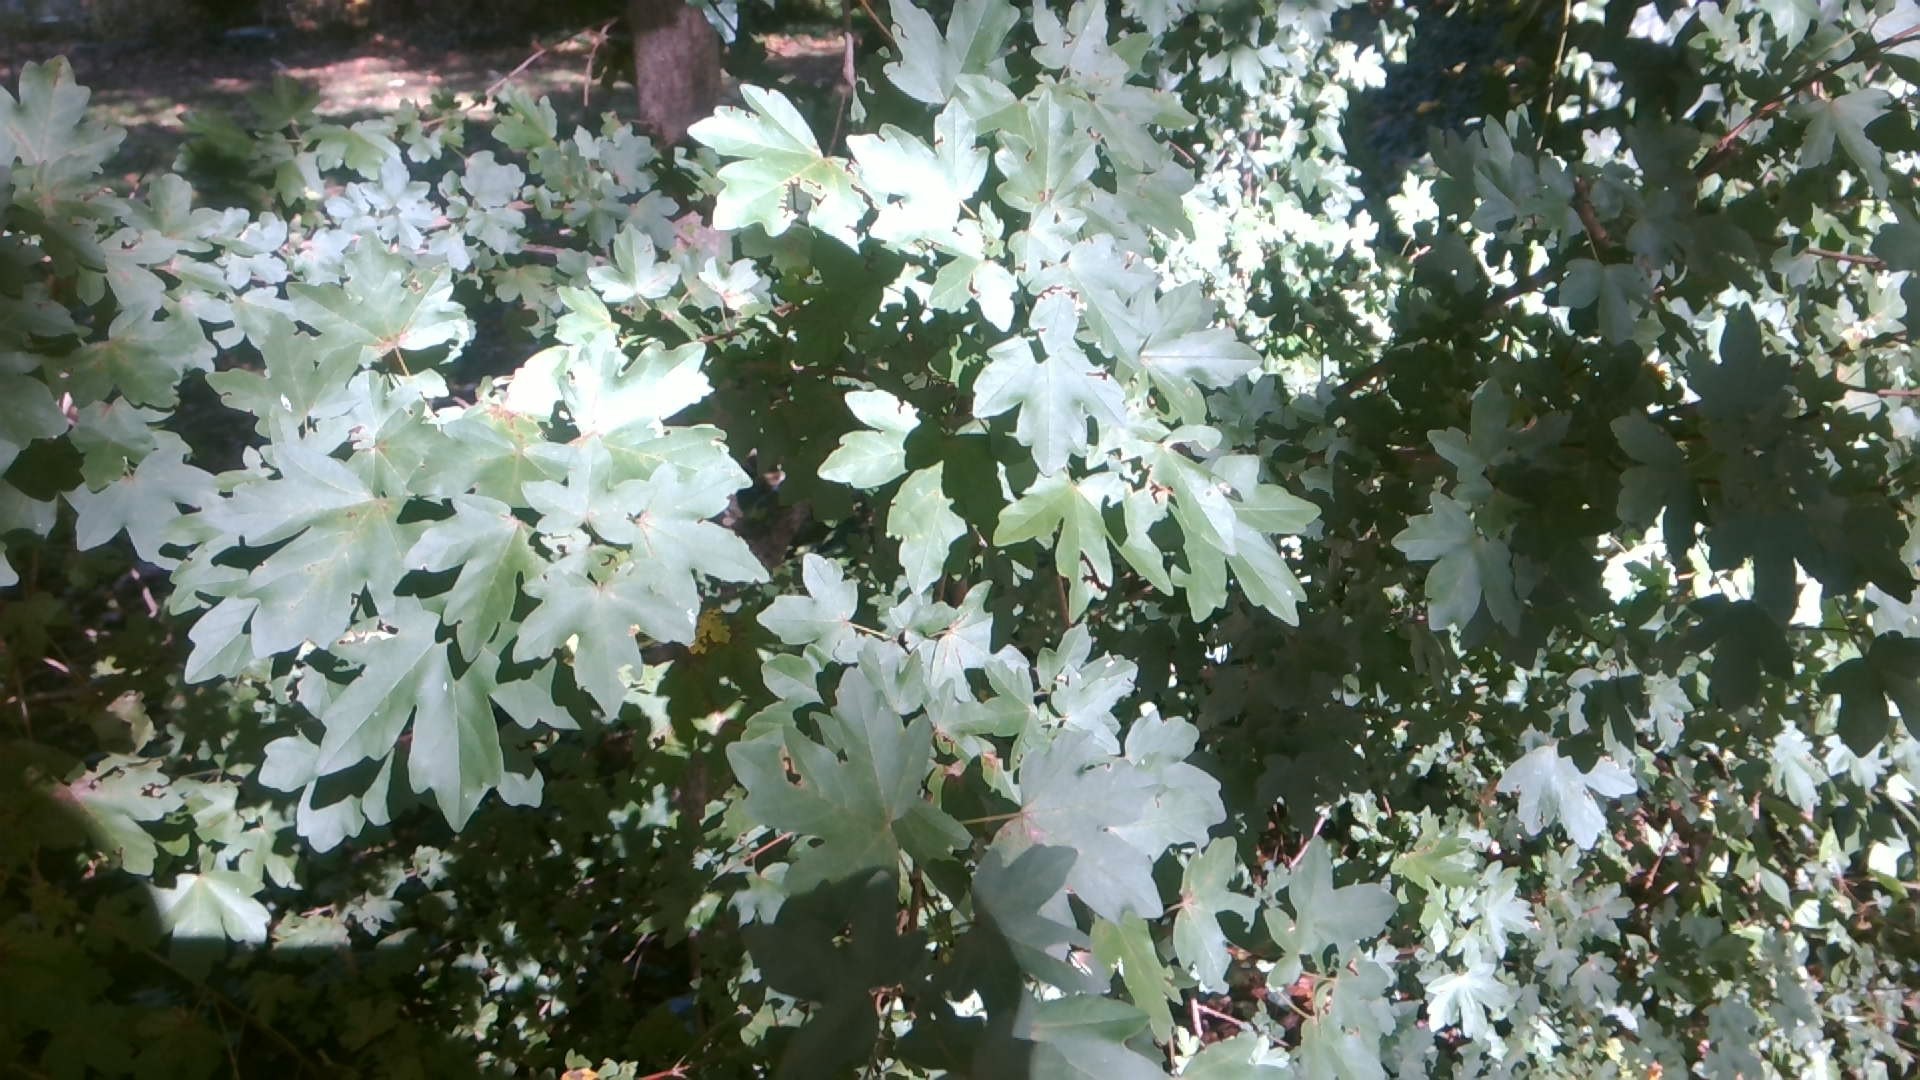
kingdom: Plantae
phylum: Tracheophyta
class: Magnoliopsida
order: Sapindales
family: Sapindaceae
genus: Acer
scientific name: Acer campestre
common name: Field maple
